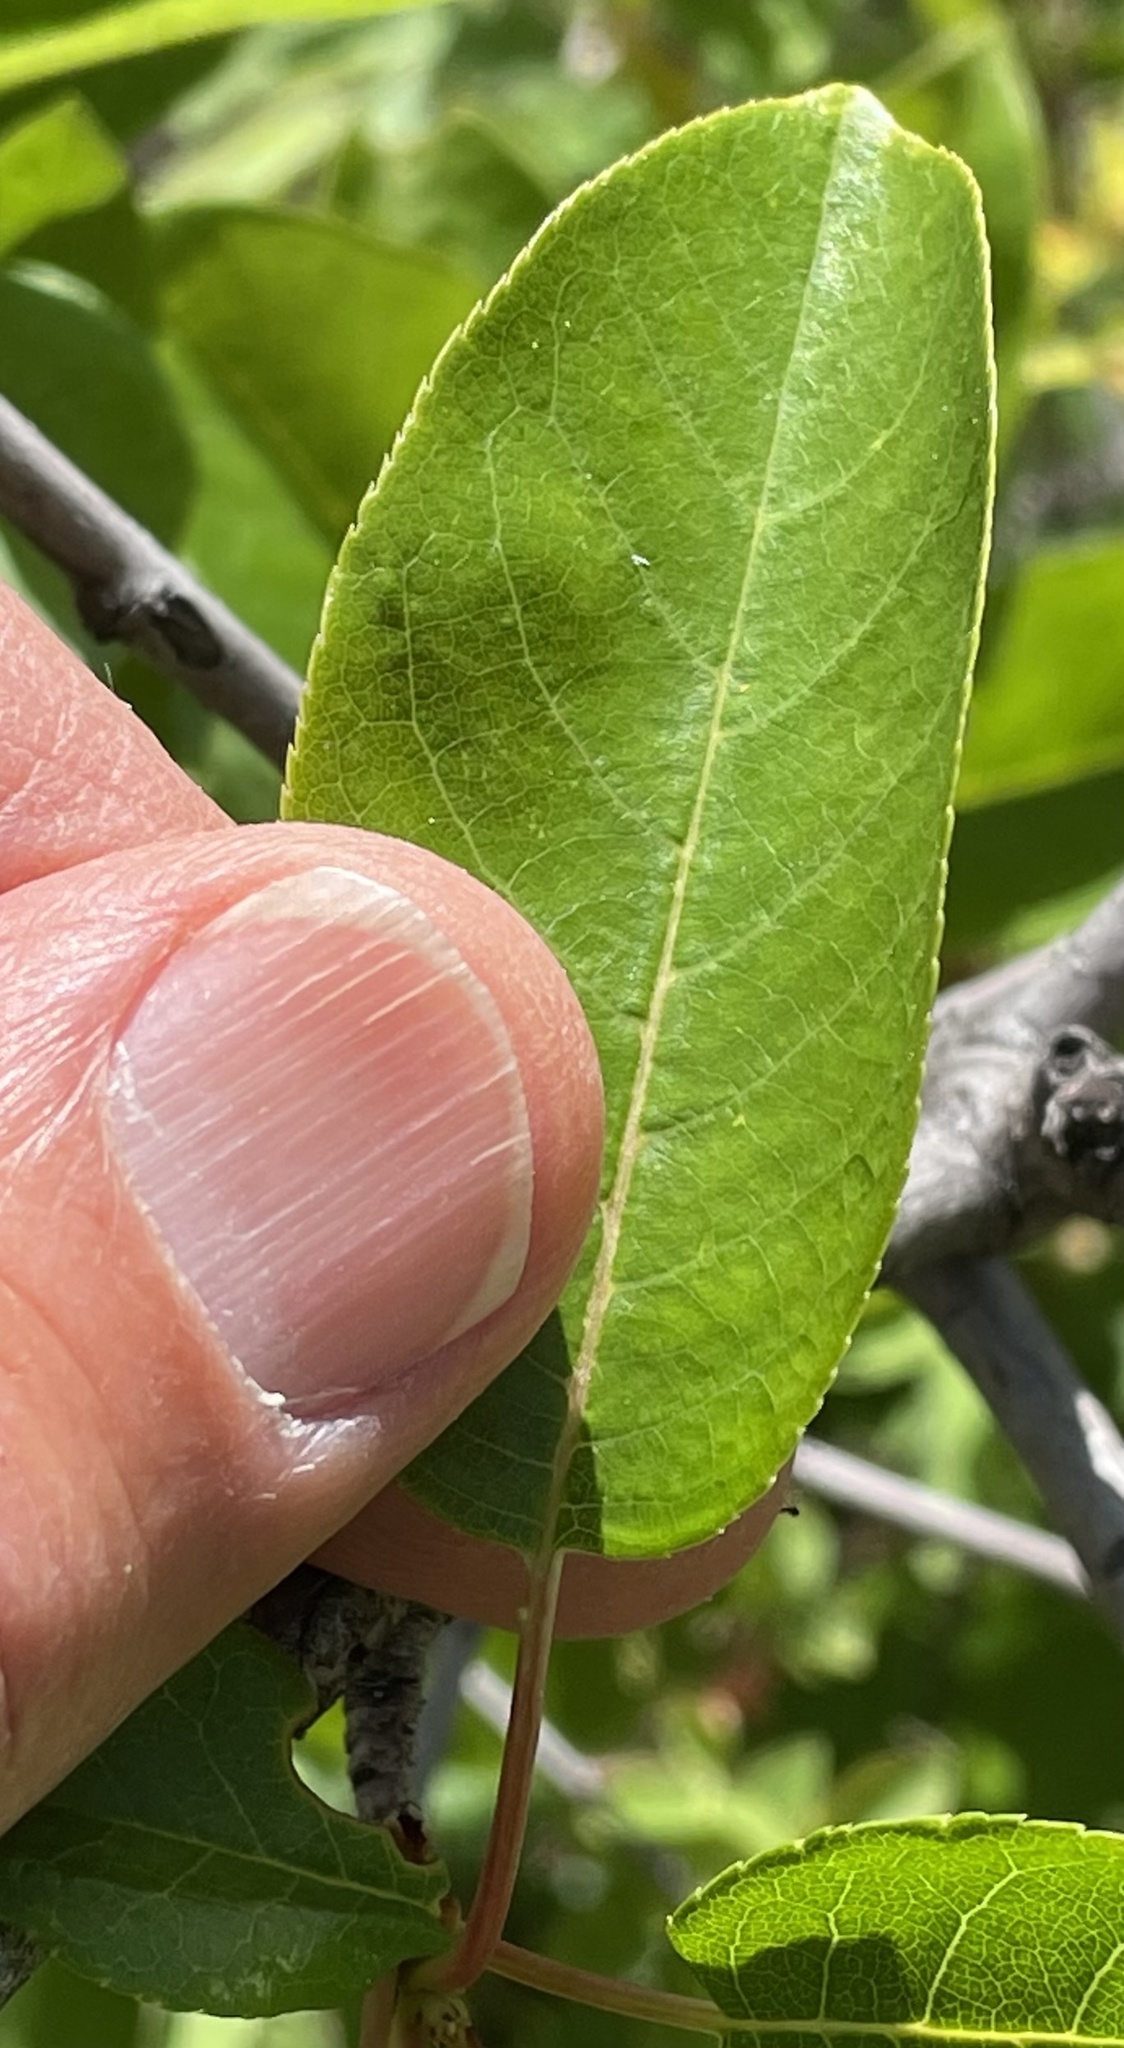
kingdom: Plantae
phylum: Tracheophyta
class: Magnoliopsida
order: Rosales
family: Rosaceae
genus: Prunus
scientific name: Prunus virginiana
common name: Chokecherry
